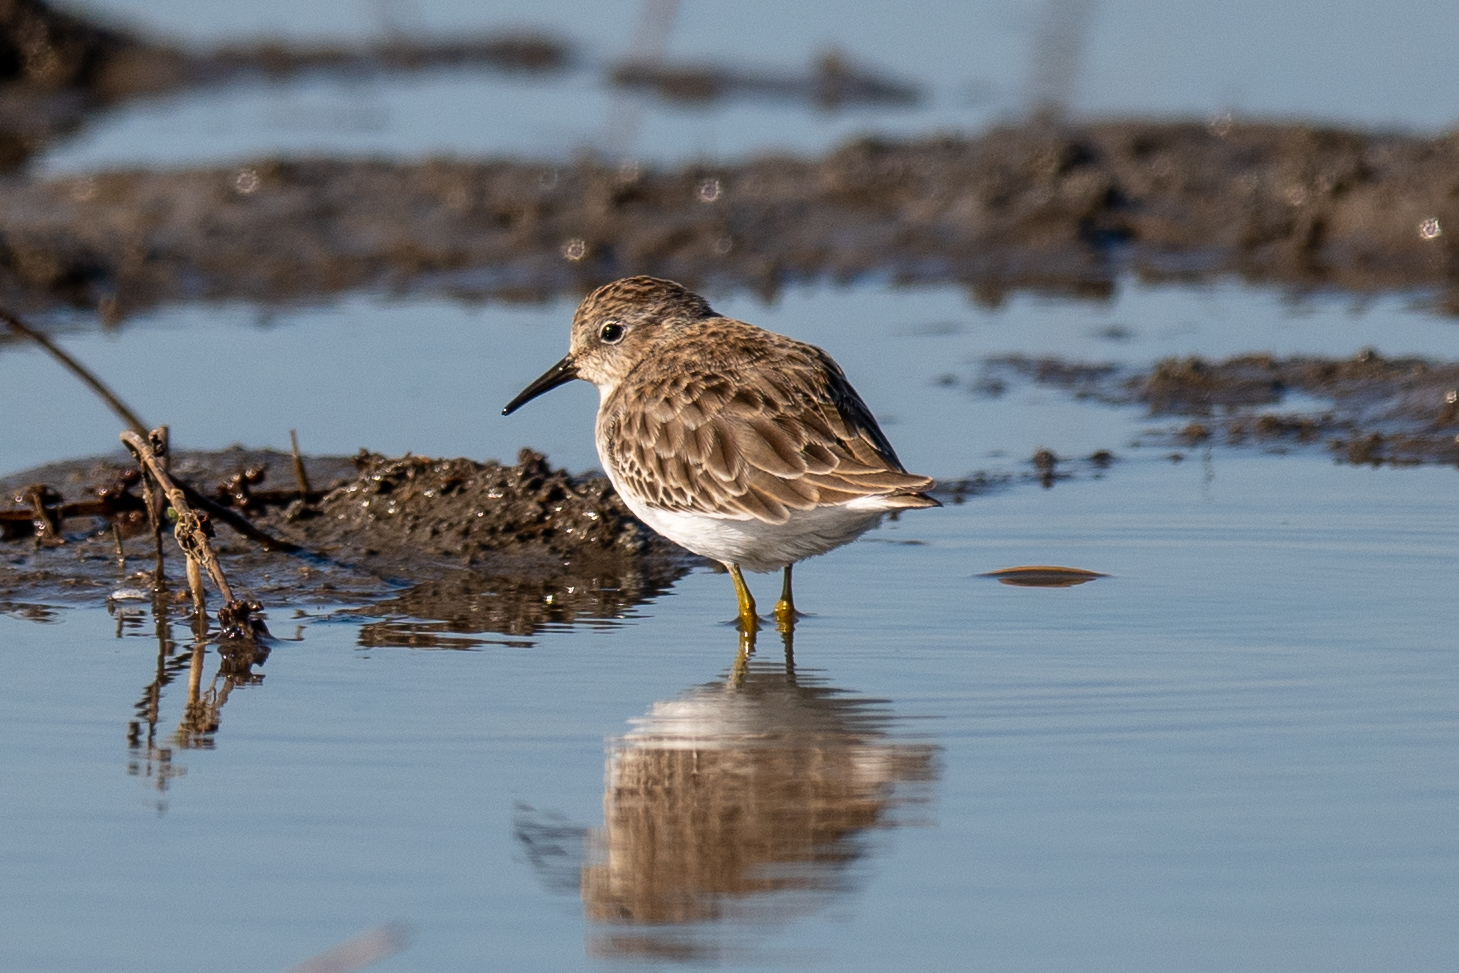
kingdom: Animalia
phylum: Chordata
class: Aves
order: Charadriiformes
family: Scolopacidae
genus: Calidris
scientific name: Calidris minutilla
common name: Least sandpiper
